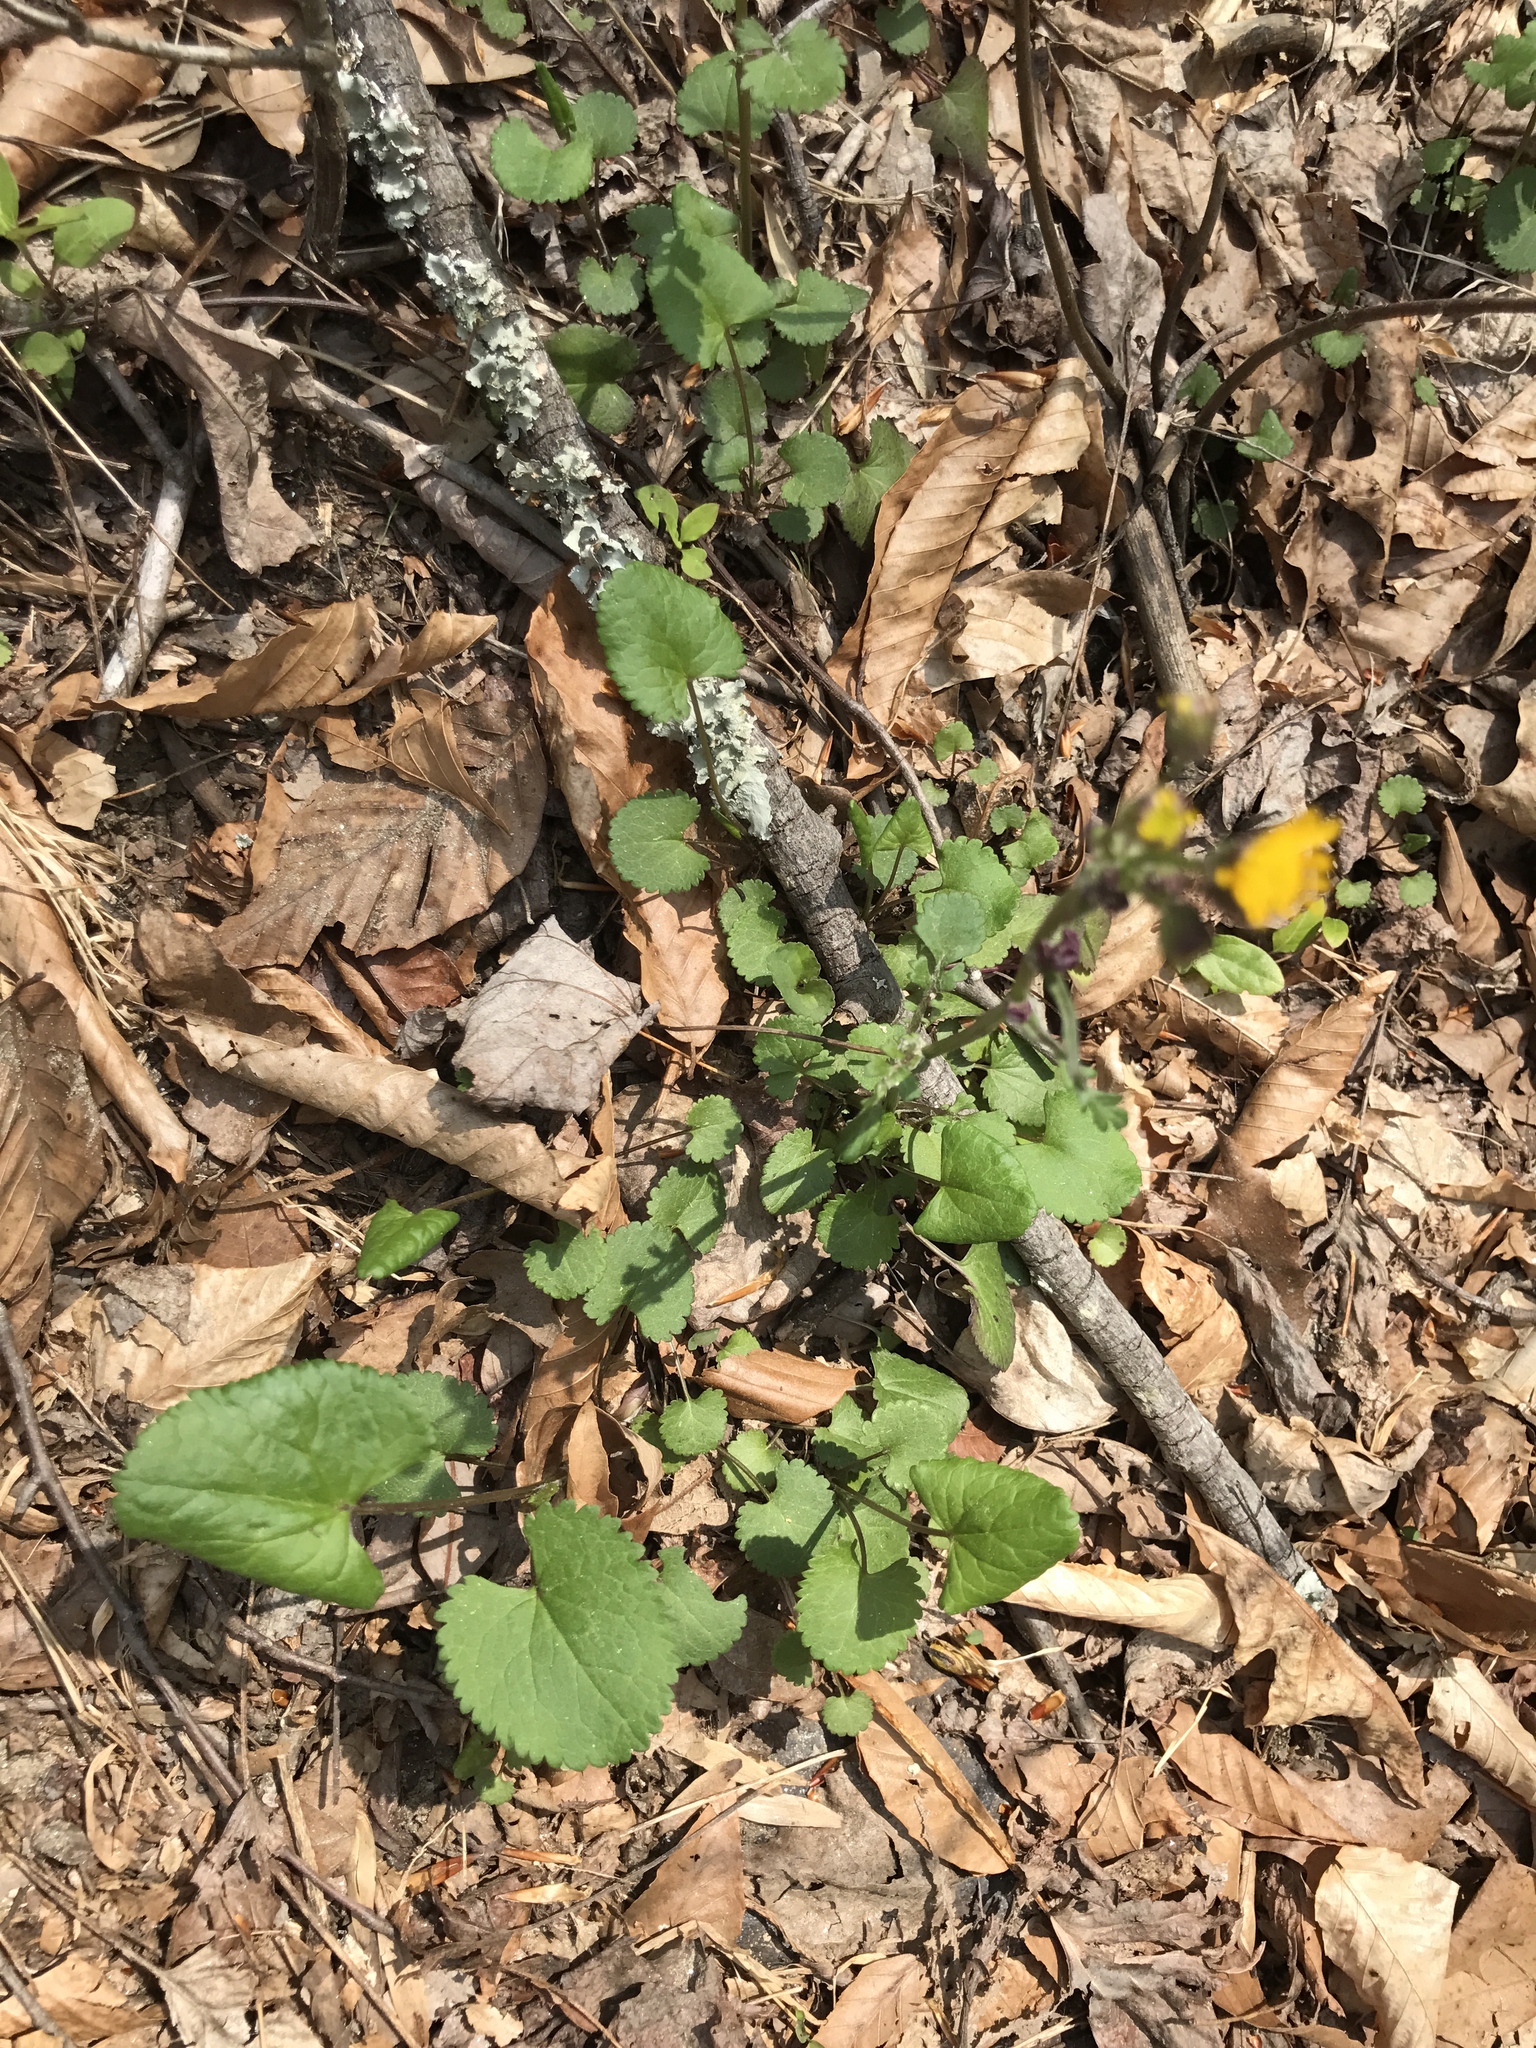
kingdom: Plantae
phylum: Tracheophyta
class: Magnoliopsida
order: Asterales
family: Asteraceae
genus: Packera
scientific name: Packera aurea
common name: Golden groundsel
